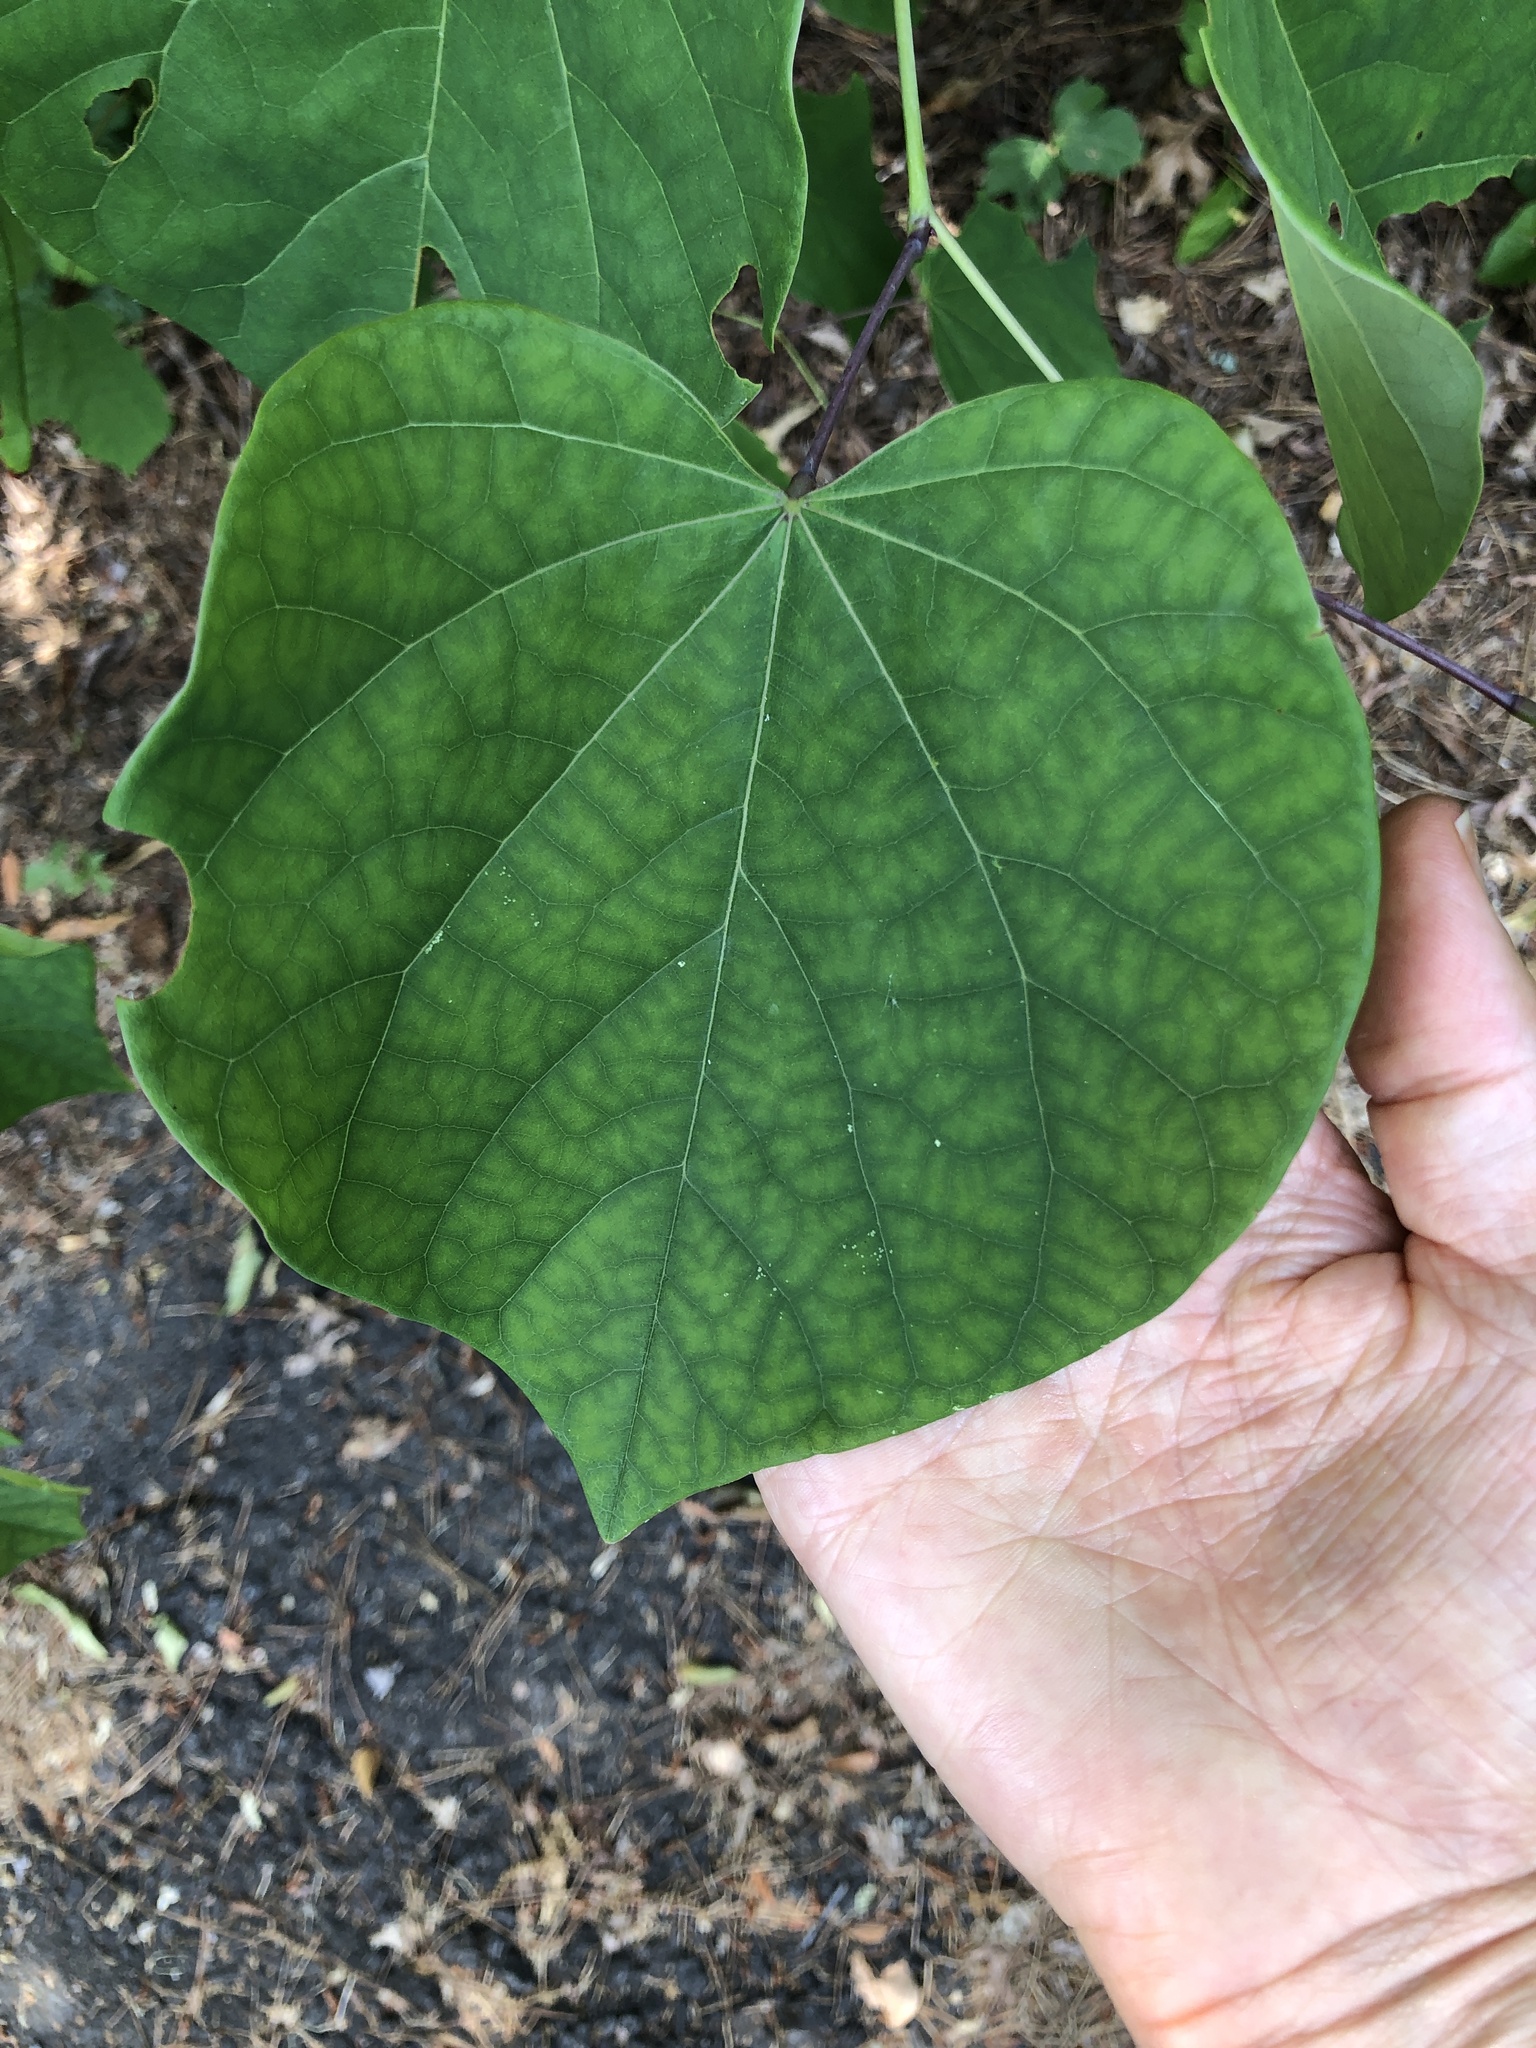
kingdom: Plantae
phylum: Tracheophyta
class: Magnoliopsida
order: Fabales
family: Fabaceae
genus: Cercis
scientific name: Cercis canadensis
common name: Eastern redbud
